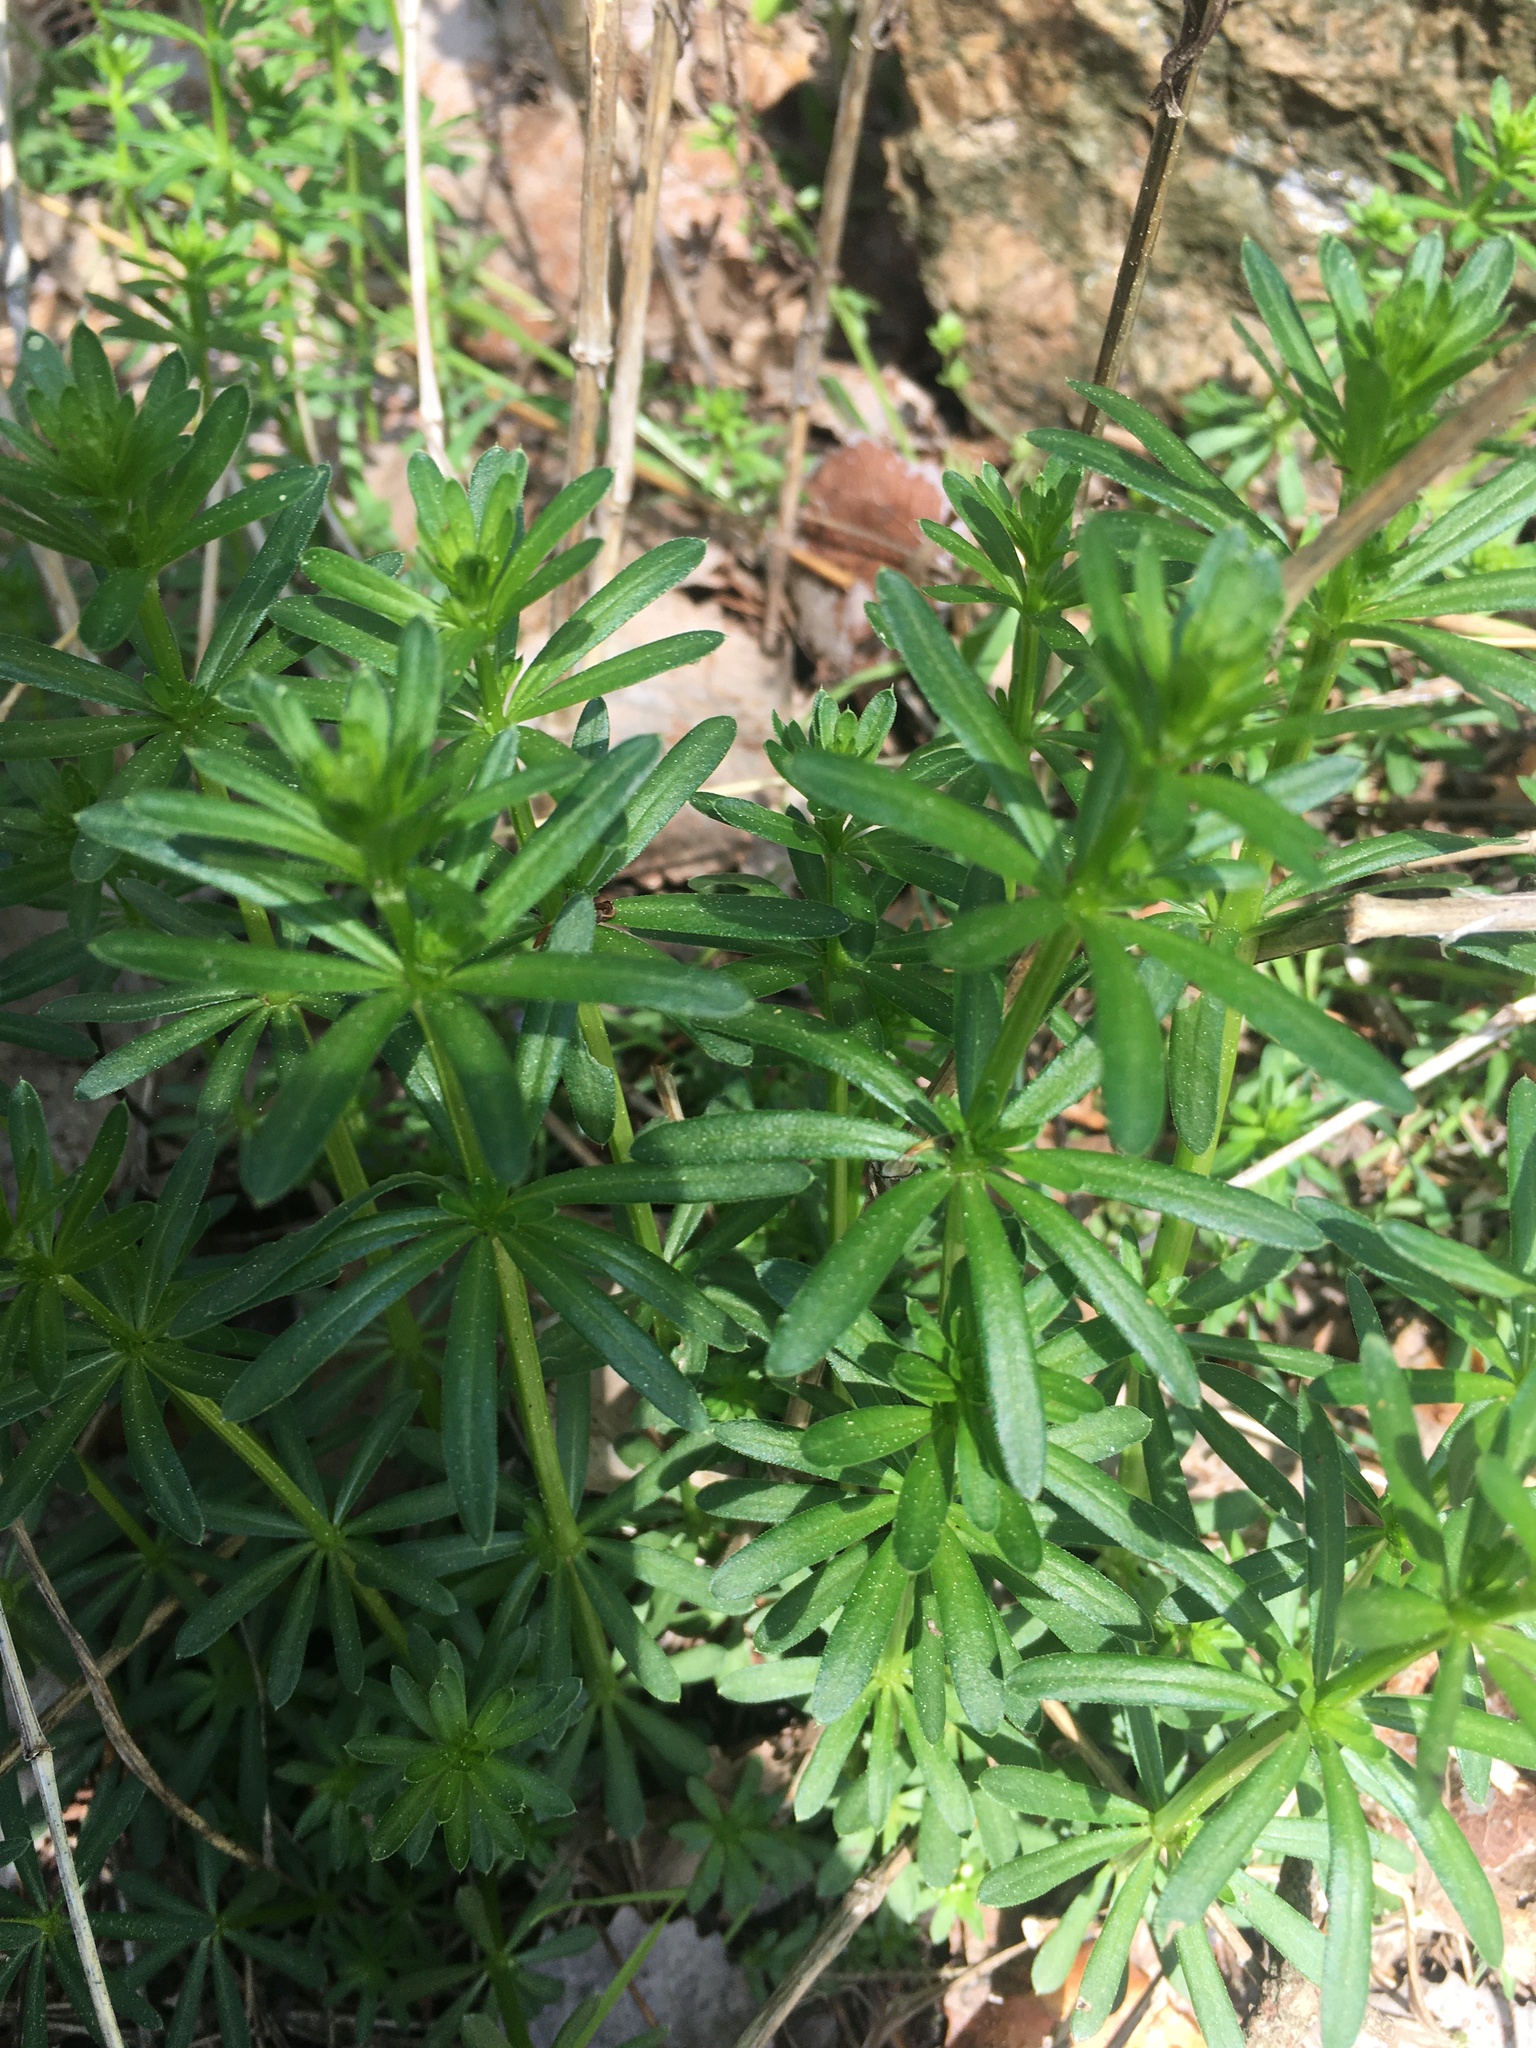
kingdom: Plantae
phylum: Tracheophyta
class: Magnoliopsida
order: Gentianales
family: Rubiaceae
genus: Galium
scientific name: Galium mollugo
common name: Hedge bedstraw
